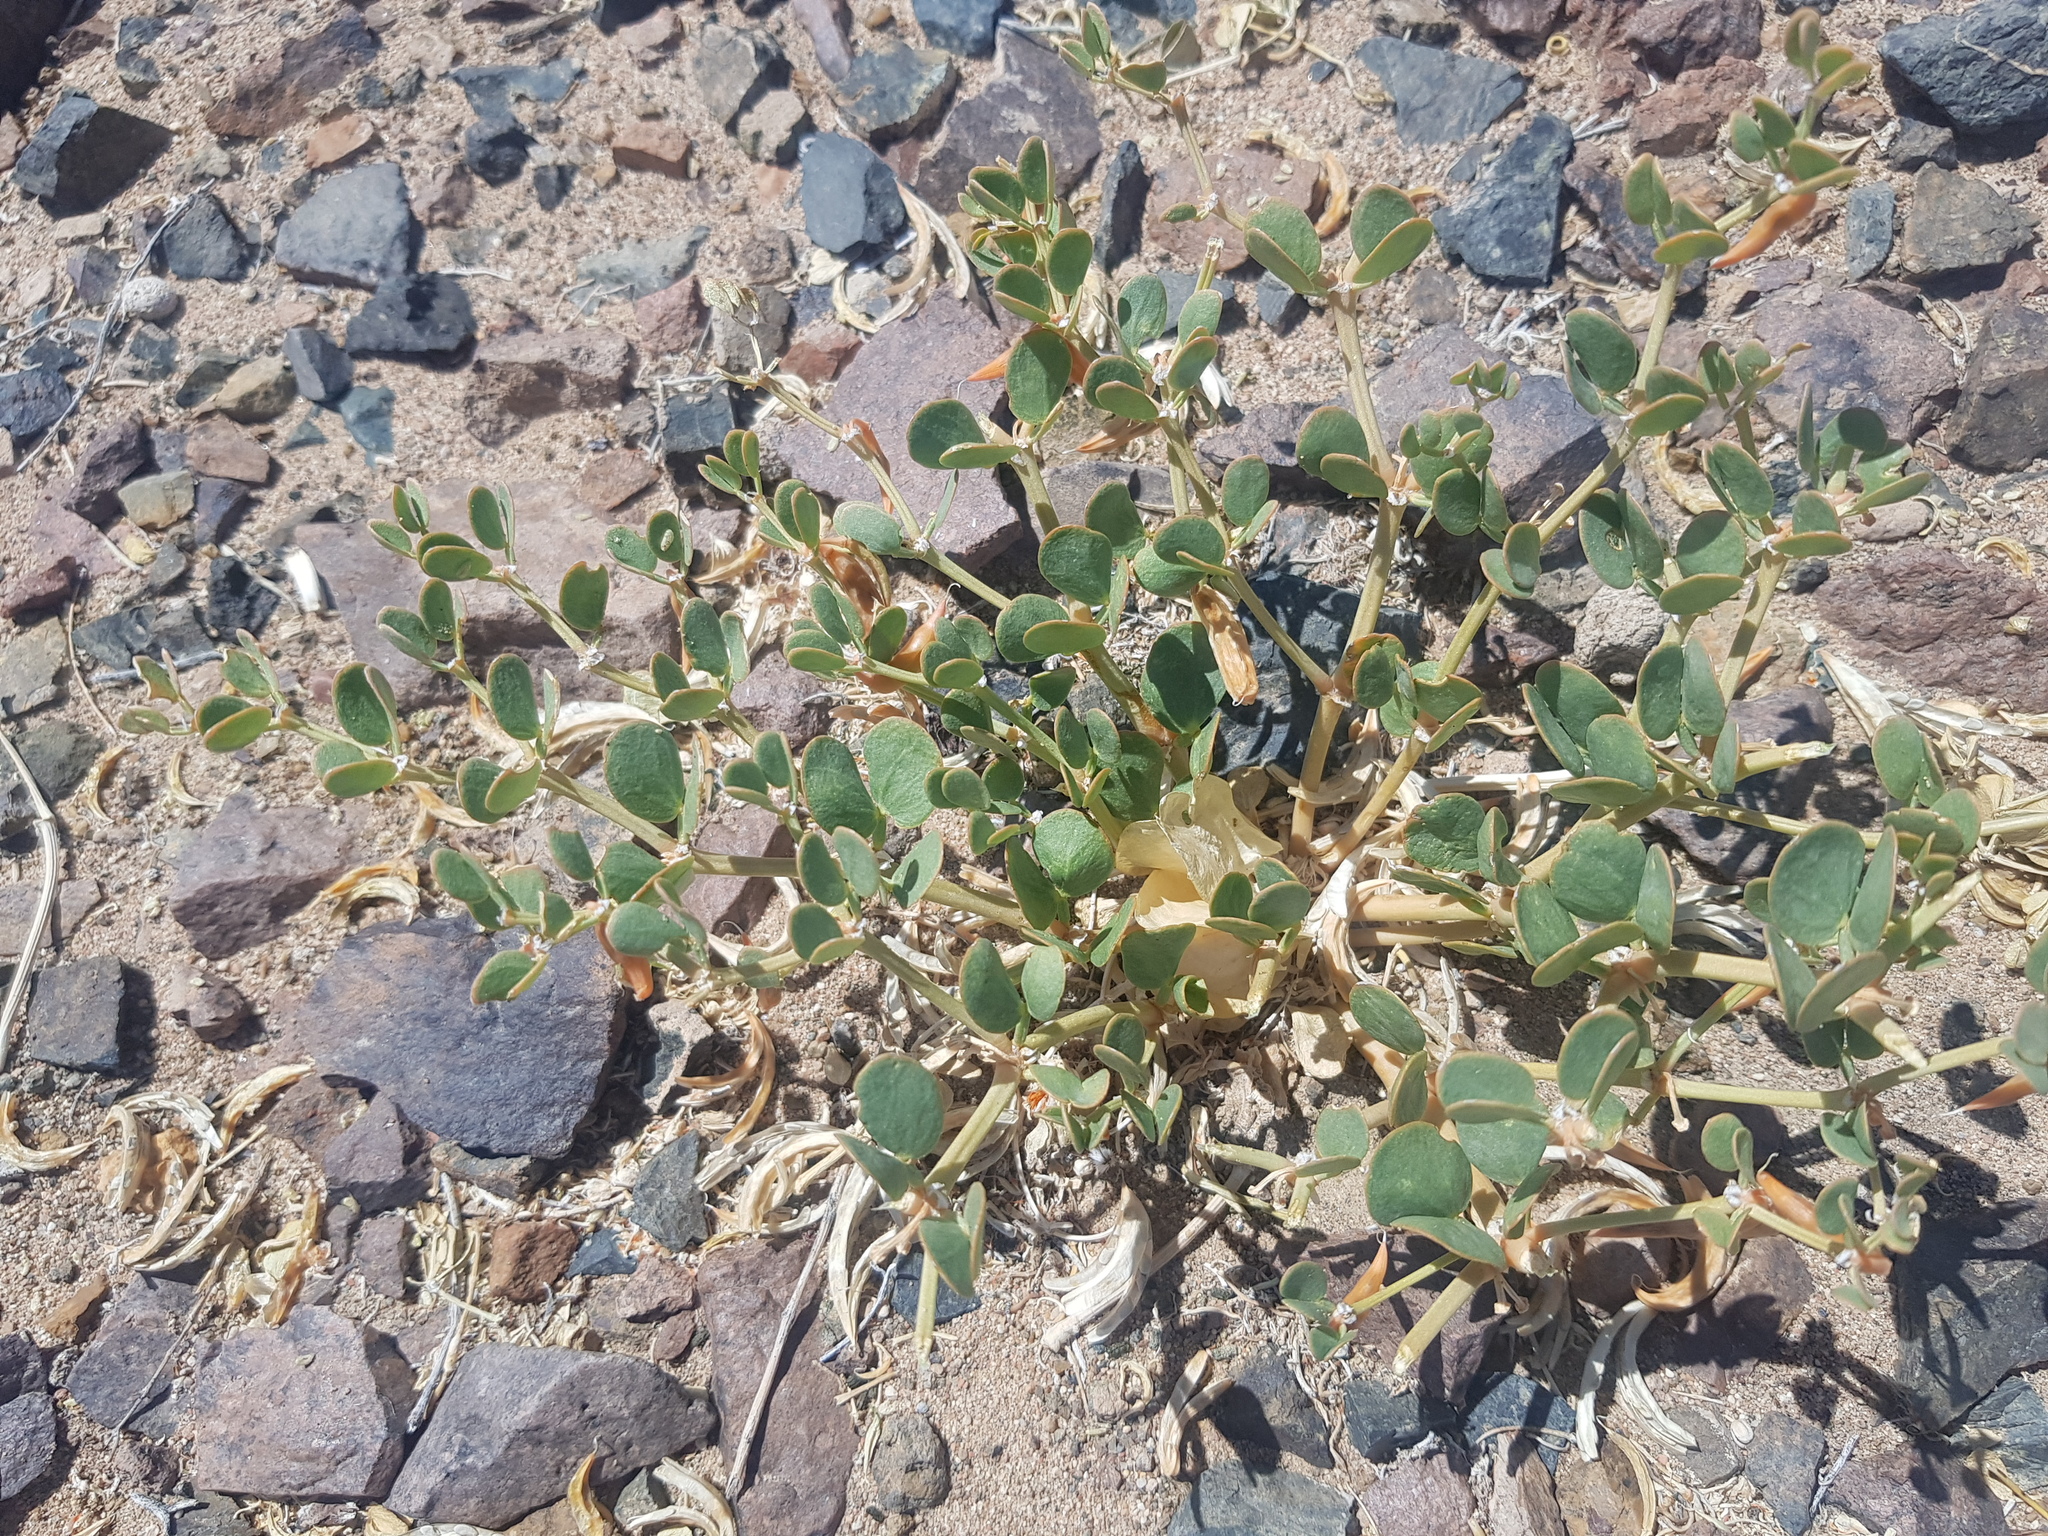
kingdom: Plantae
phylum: Tracheophyta
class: Magnoliopsida
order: Zygophyllales
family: Zygophyllaceae
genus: Zygophyllum
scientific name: Zygophyllum rosowii
